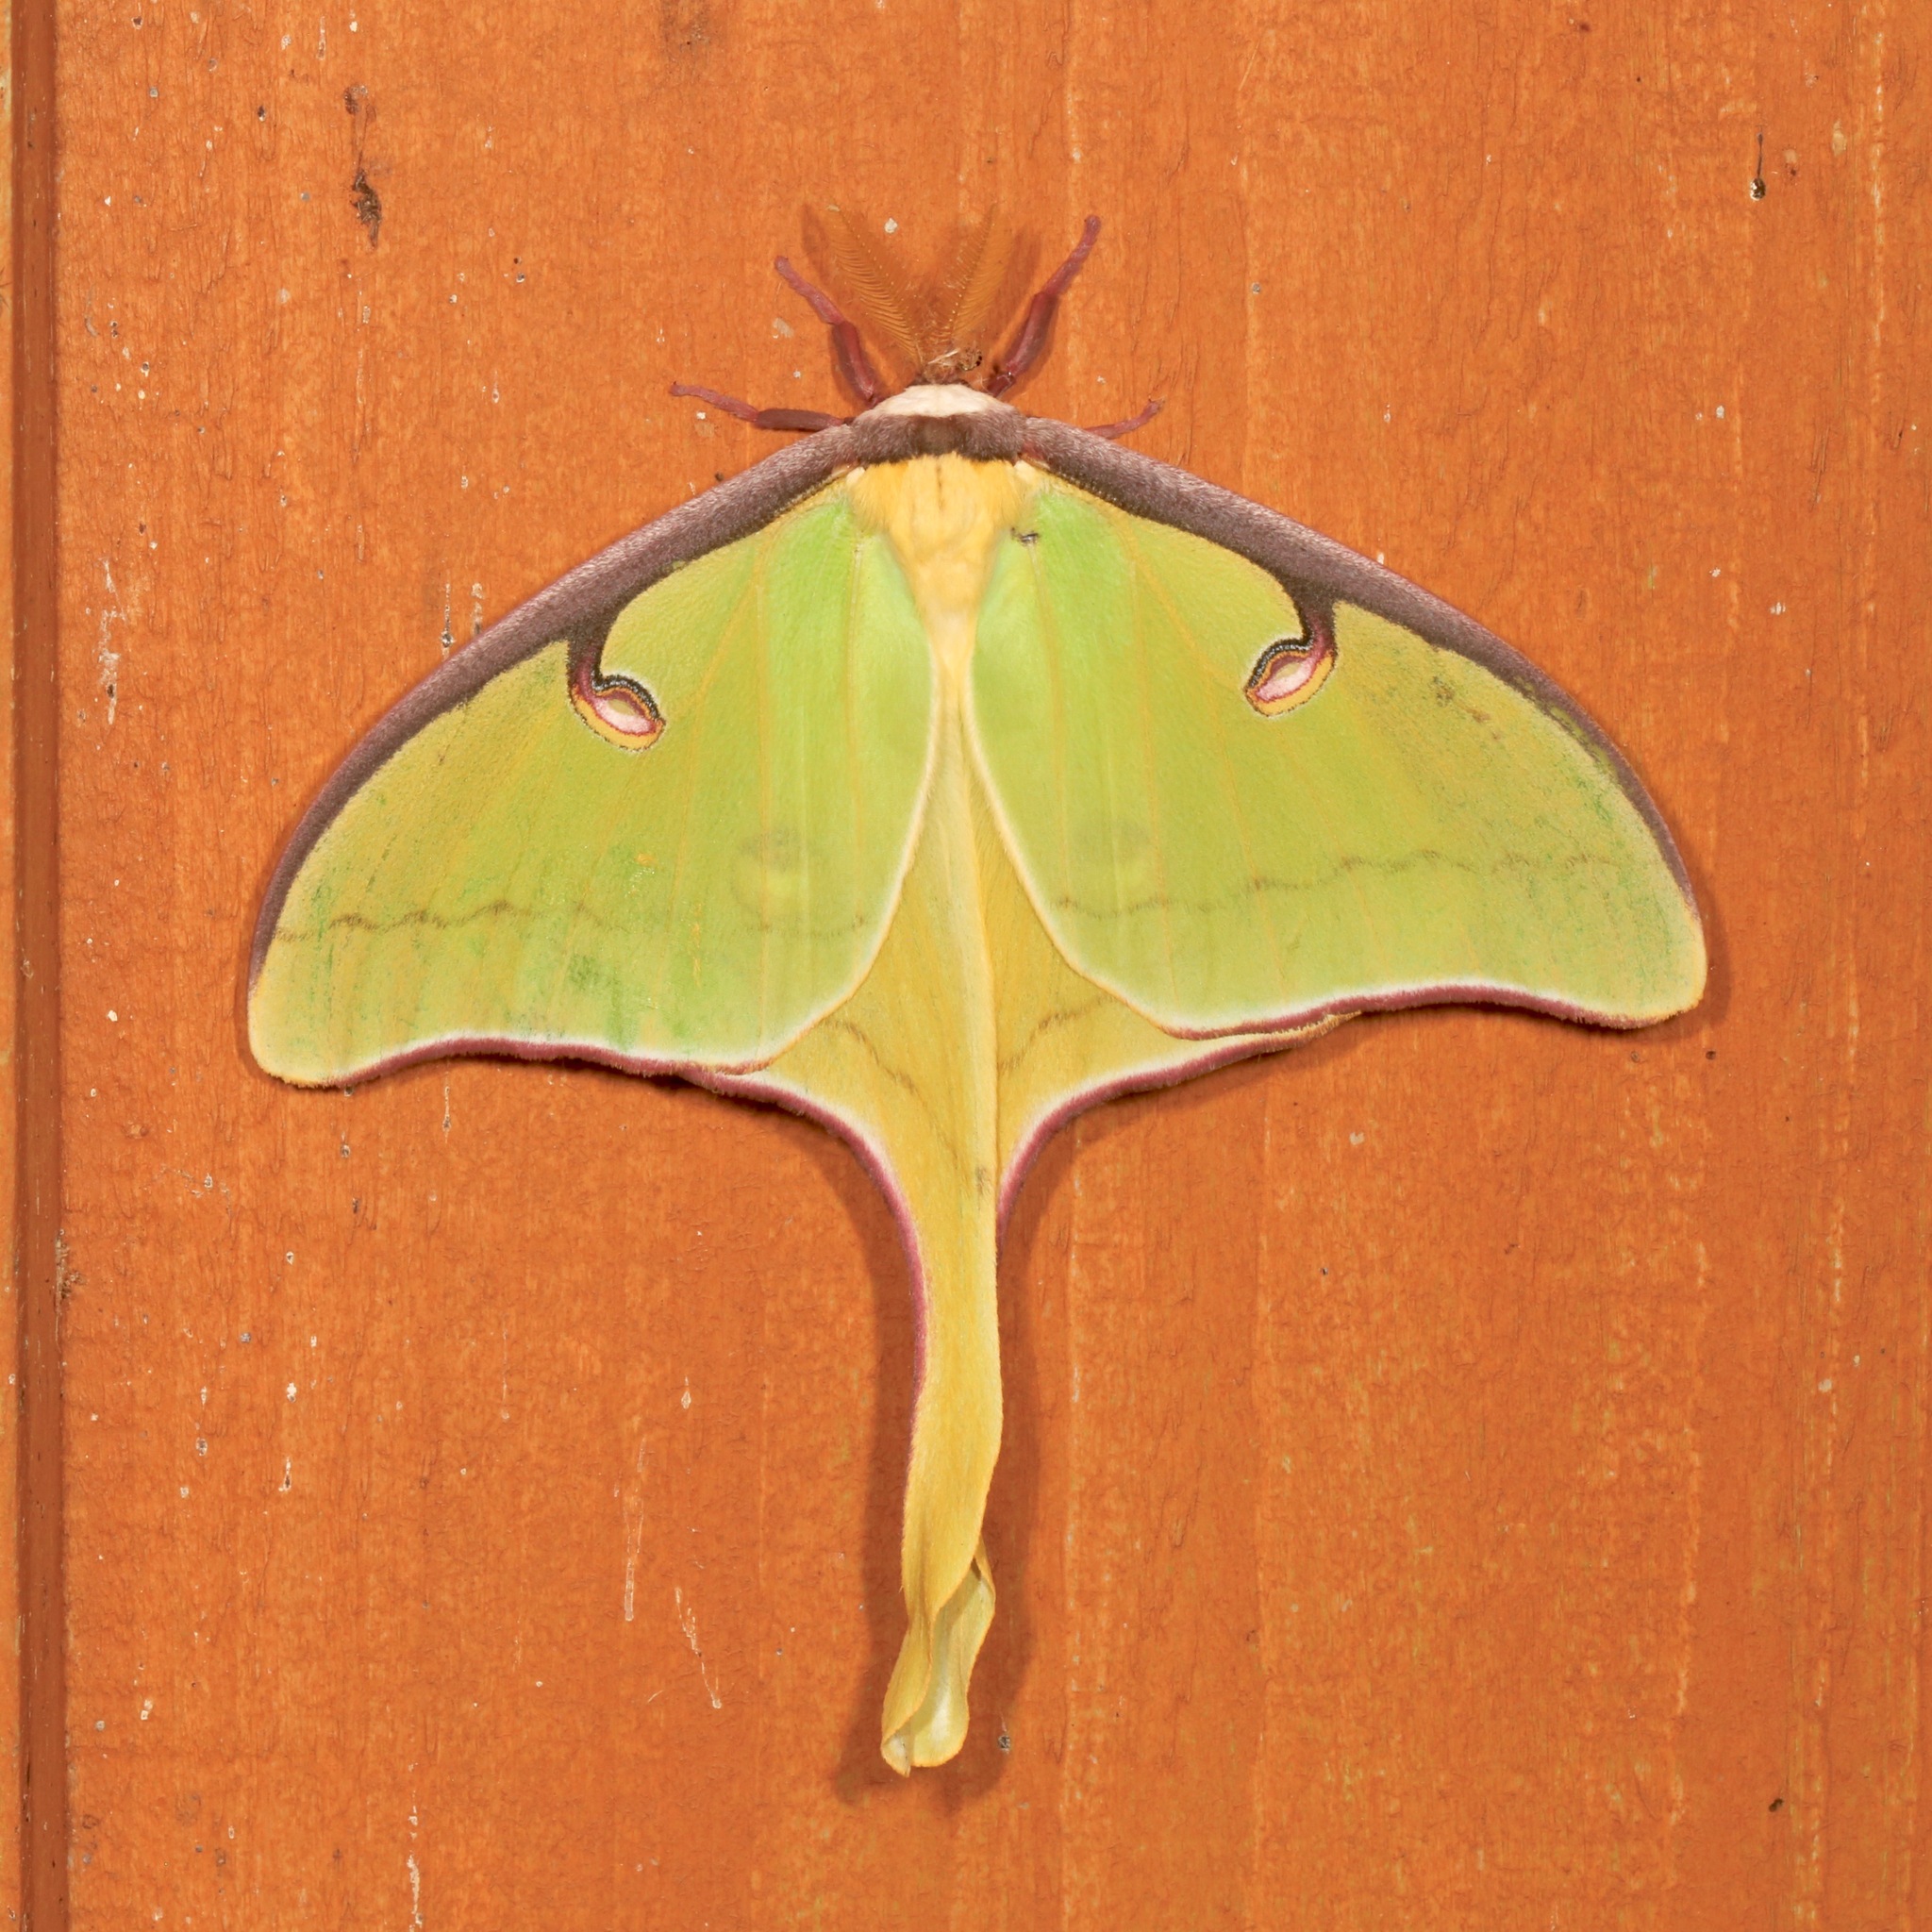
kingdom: Animalia
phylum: Arthropoda
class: Insecta
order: Lepidoptera
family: Saturniidae
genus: Actias
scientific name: Actias luna
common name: Luna moth
